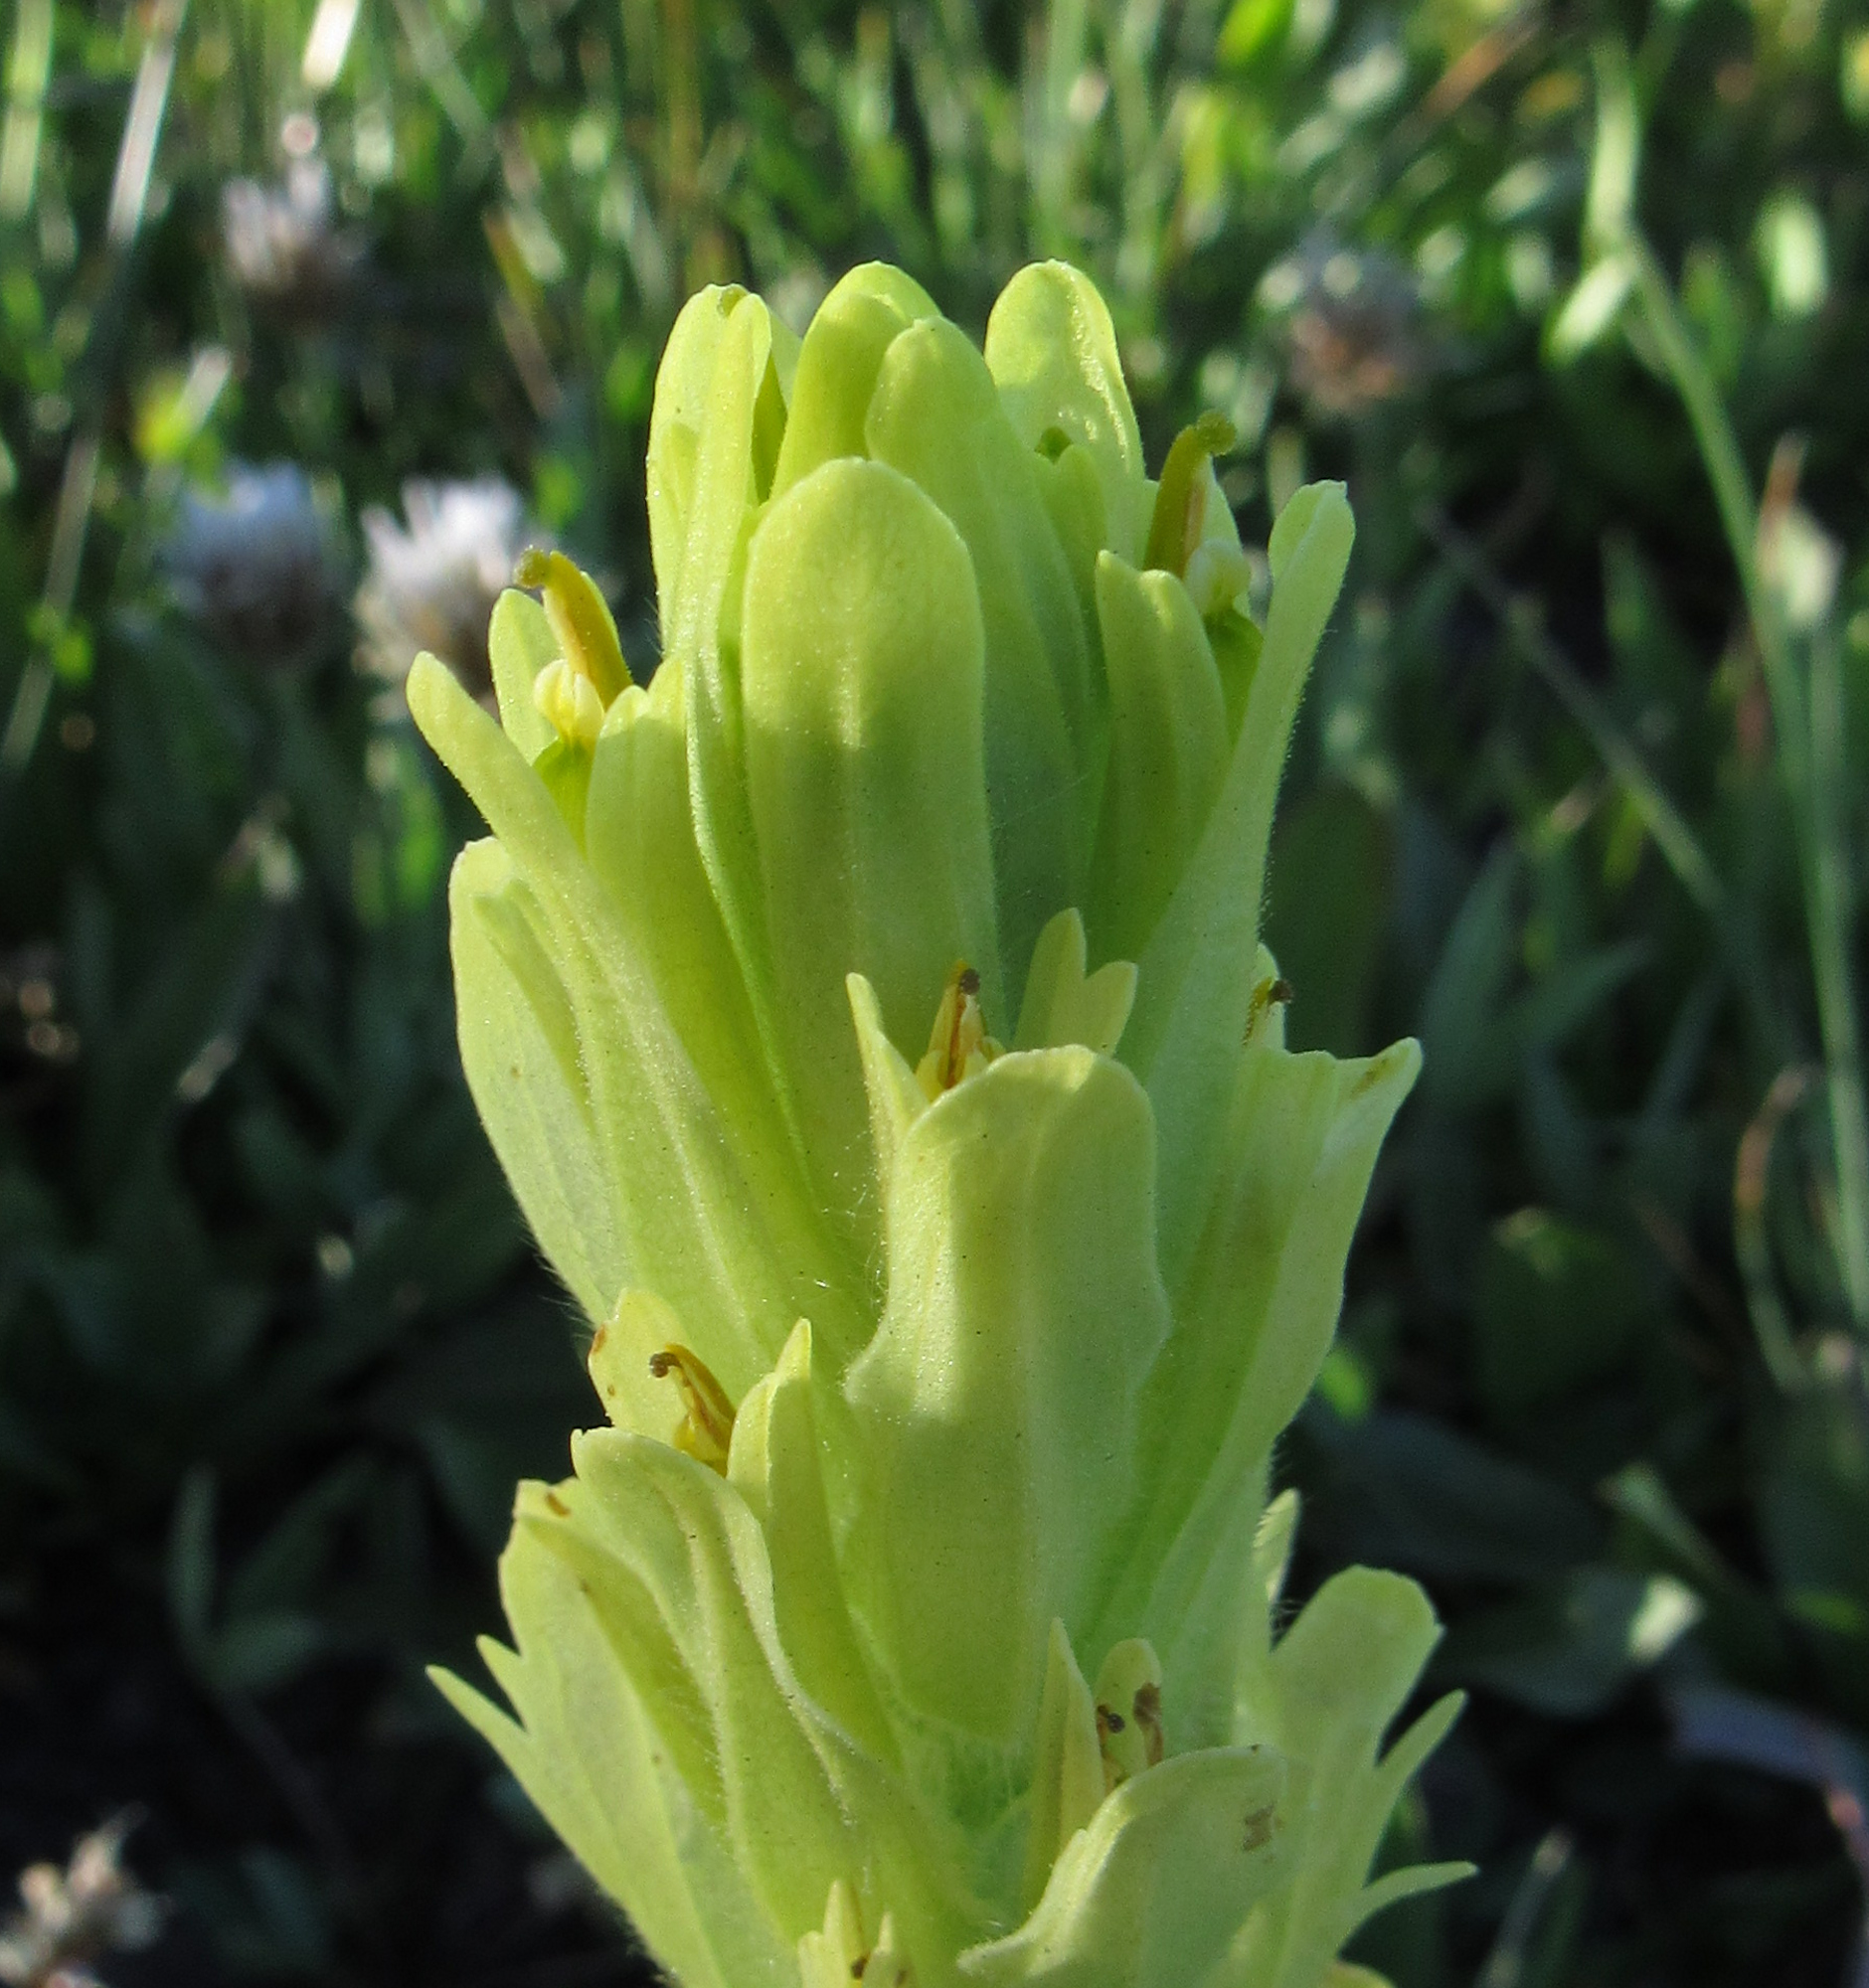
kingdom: Plantae
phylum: Tracheophyta
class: Magnoliopsida
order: Lamiales
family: Orobanchaceae
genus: Castilleja
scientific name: Castilleja cusickii
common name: Cusick's paintbrush
